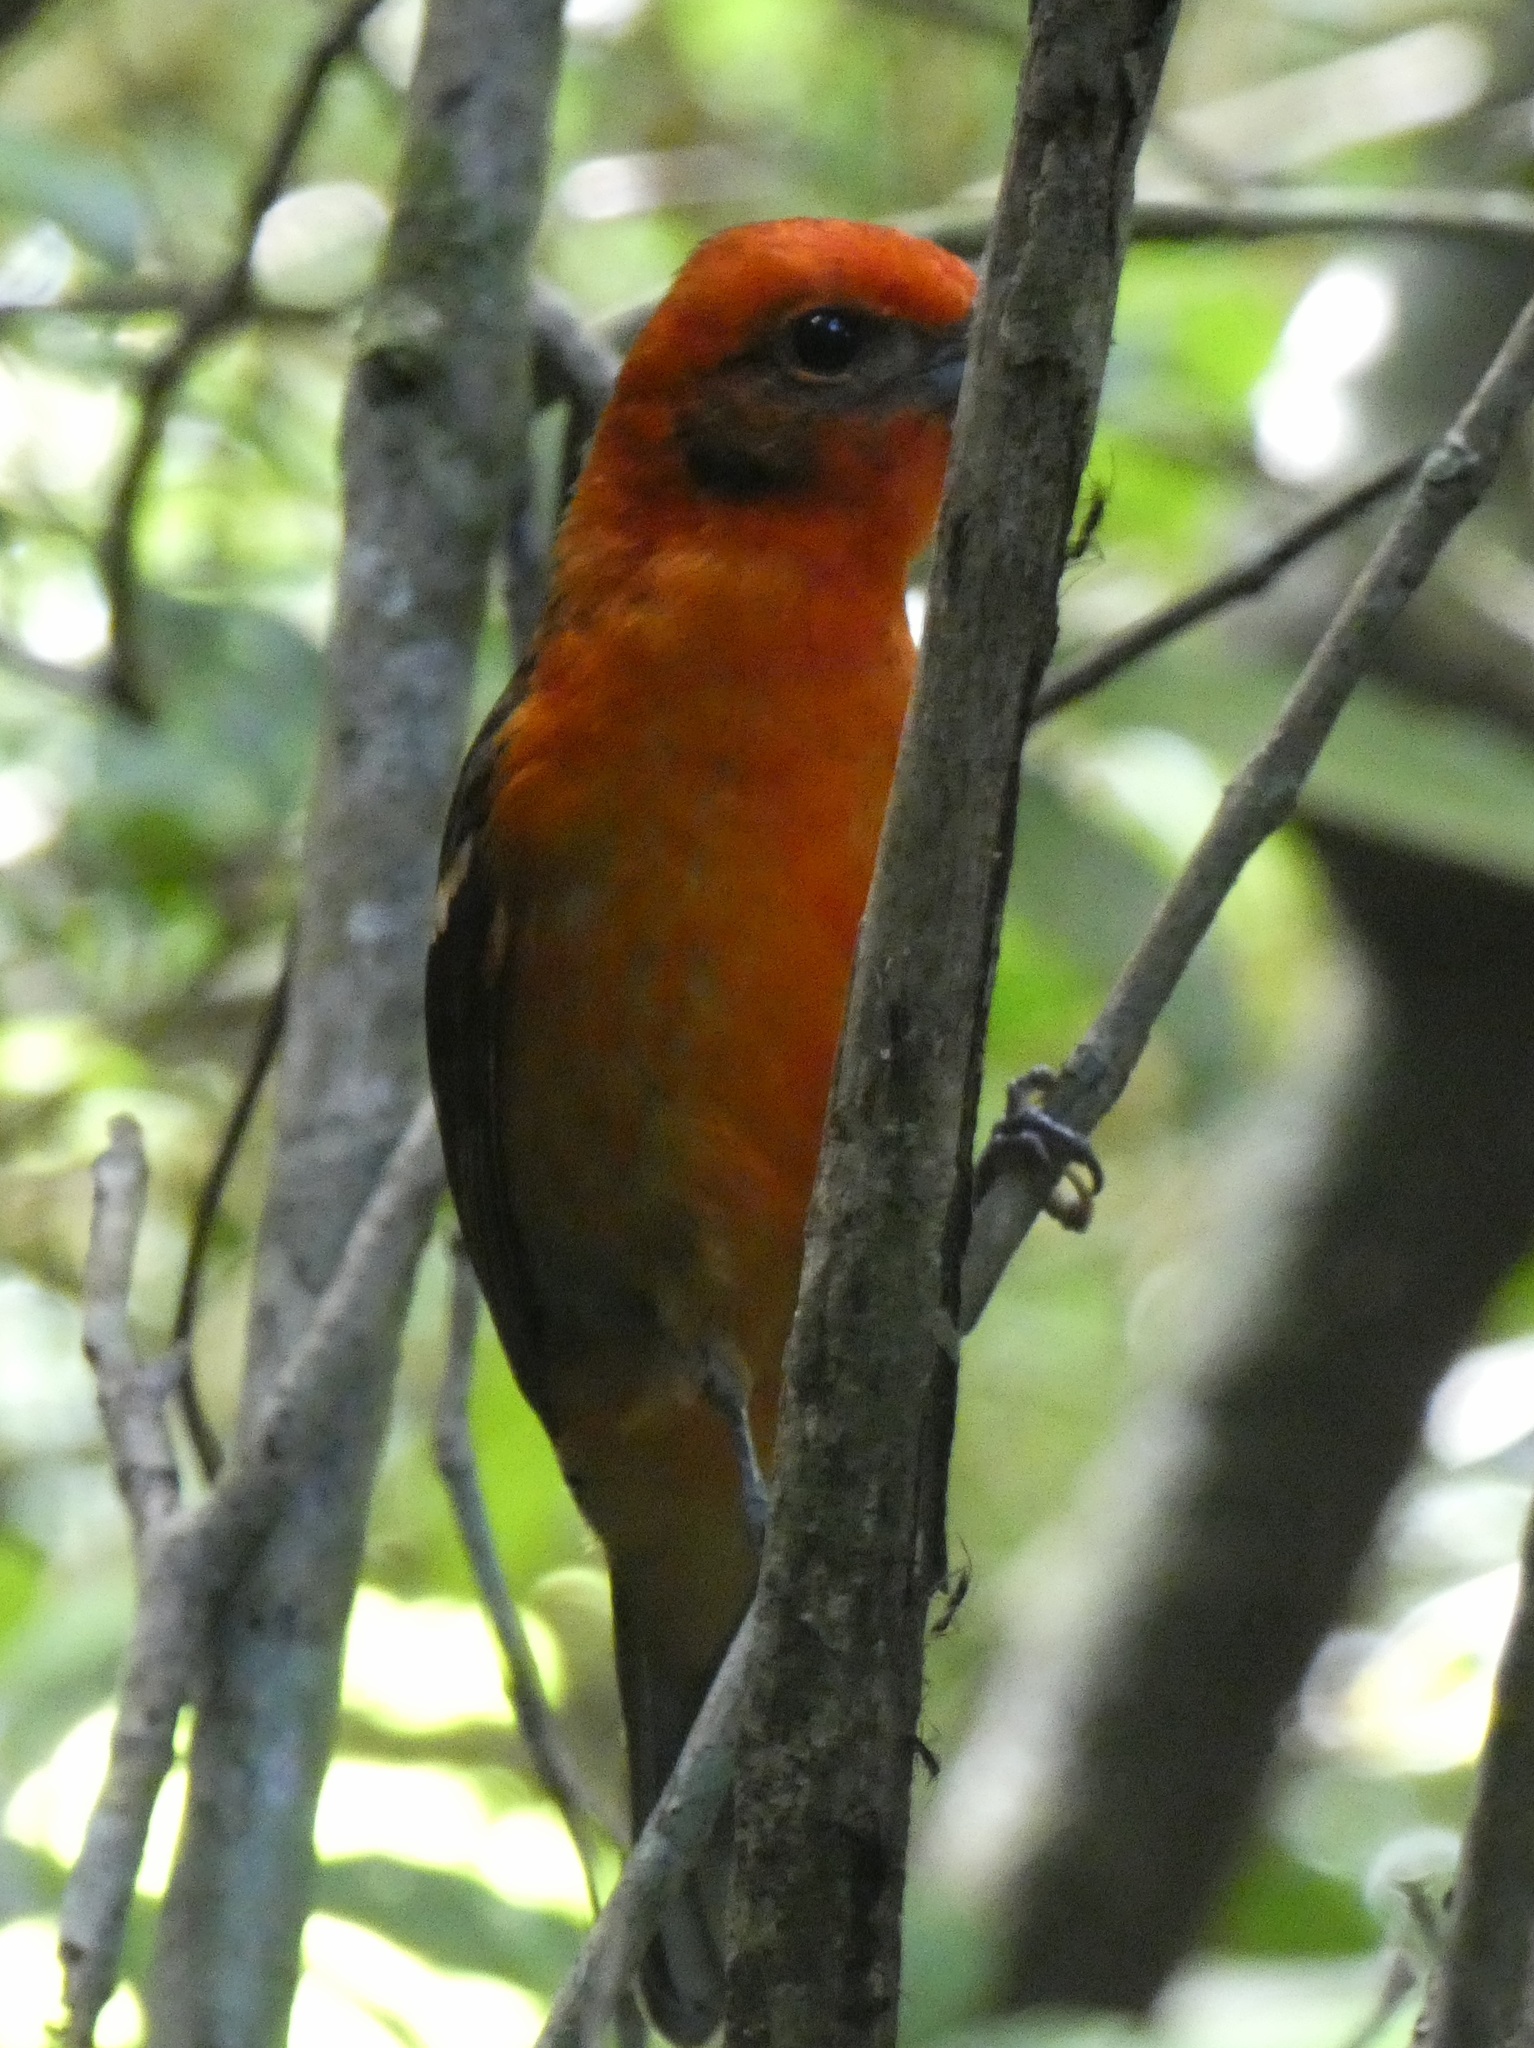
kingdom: Animalia
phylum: Chordata
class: Aves
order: Passeriformes
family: Cardinalidae
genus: Piranga
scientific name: Piranga bidentata
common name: Flame-colored tanager
